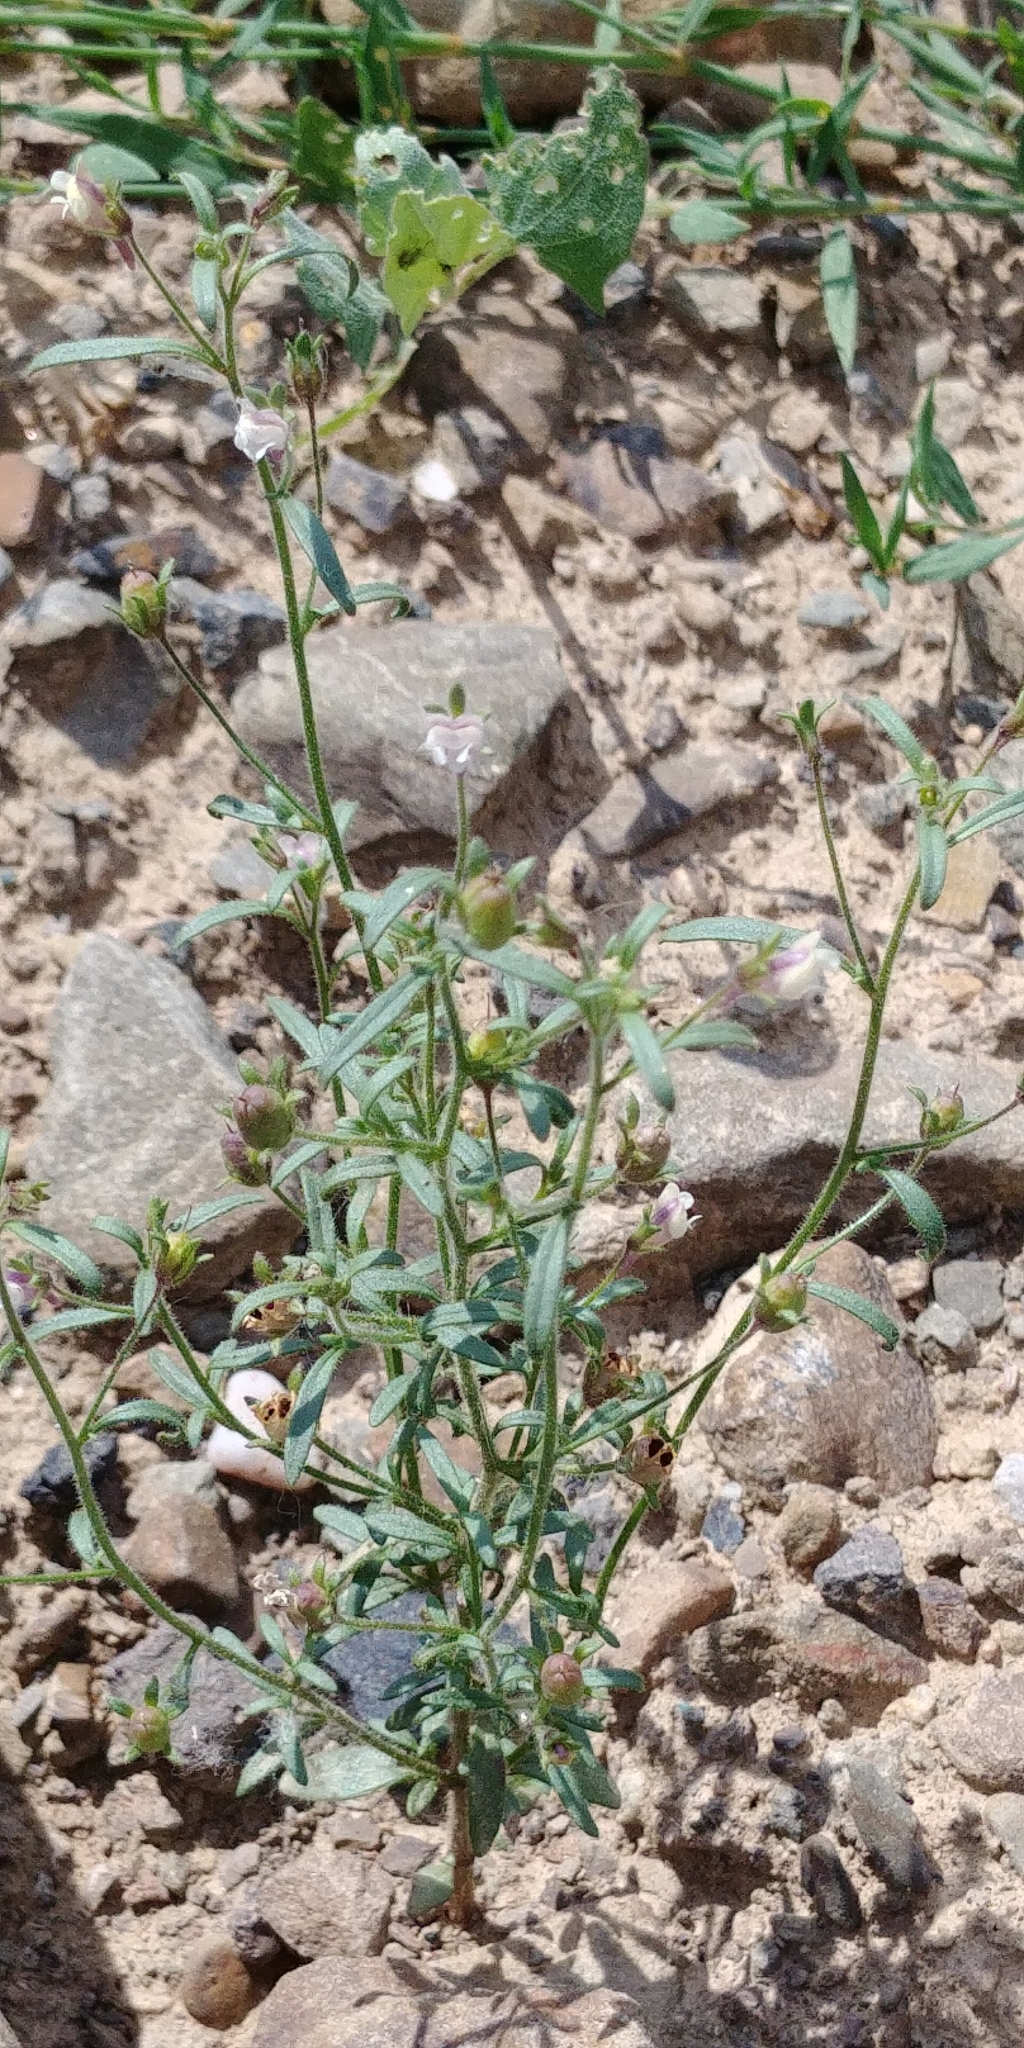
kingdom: Plantae
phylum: Tracheophyta
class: Magnoliopsida
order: Lamiales
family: Plantaginaceae
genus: Chaenorhinum
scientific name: Chaenorhinum minus
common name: Dwarf snapdragon
